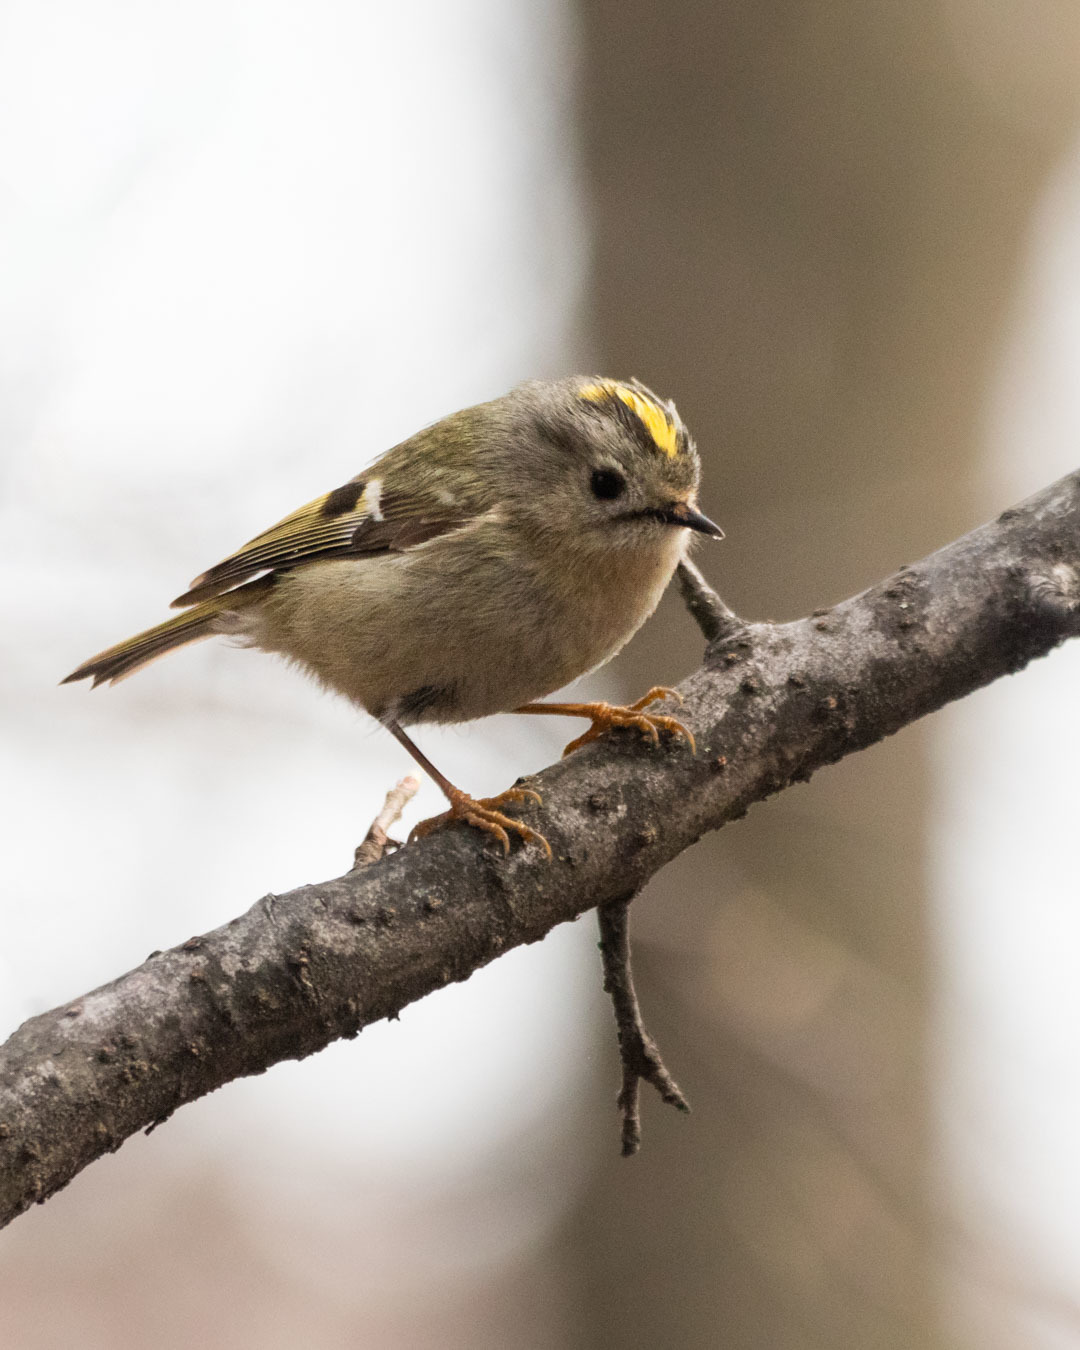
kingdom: Animalia
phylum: Chordata
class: Aves
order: Passeriformes
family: Regulidae
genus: Regulus
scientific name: Regulus regulus
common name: Goldcrest
